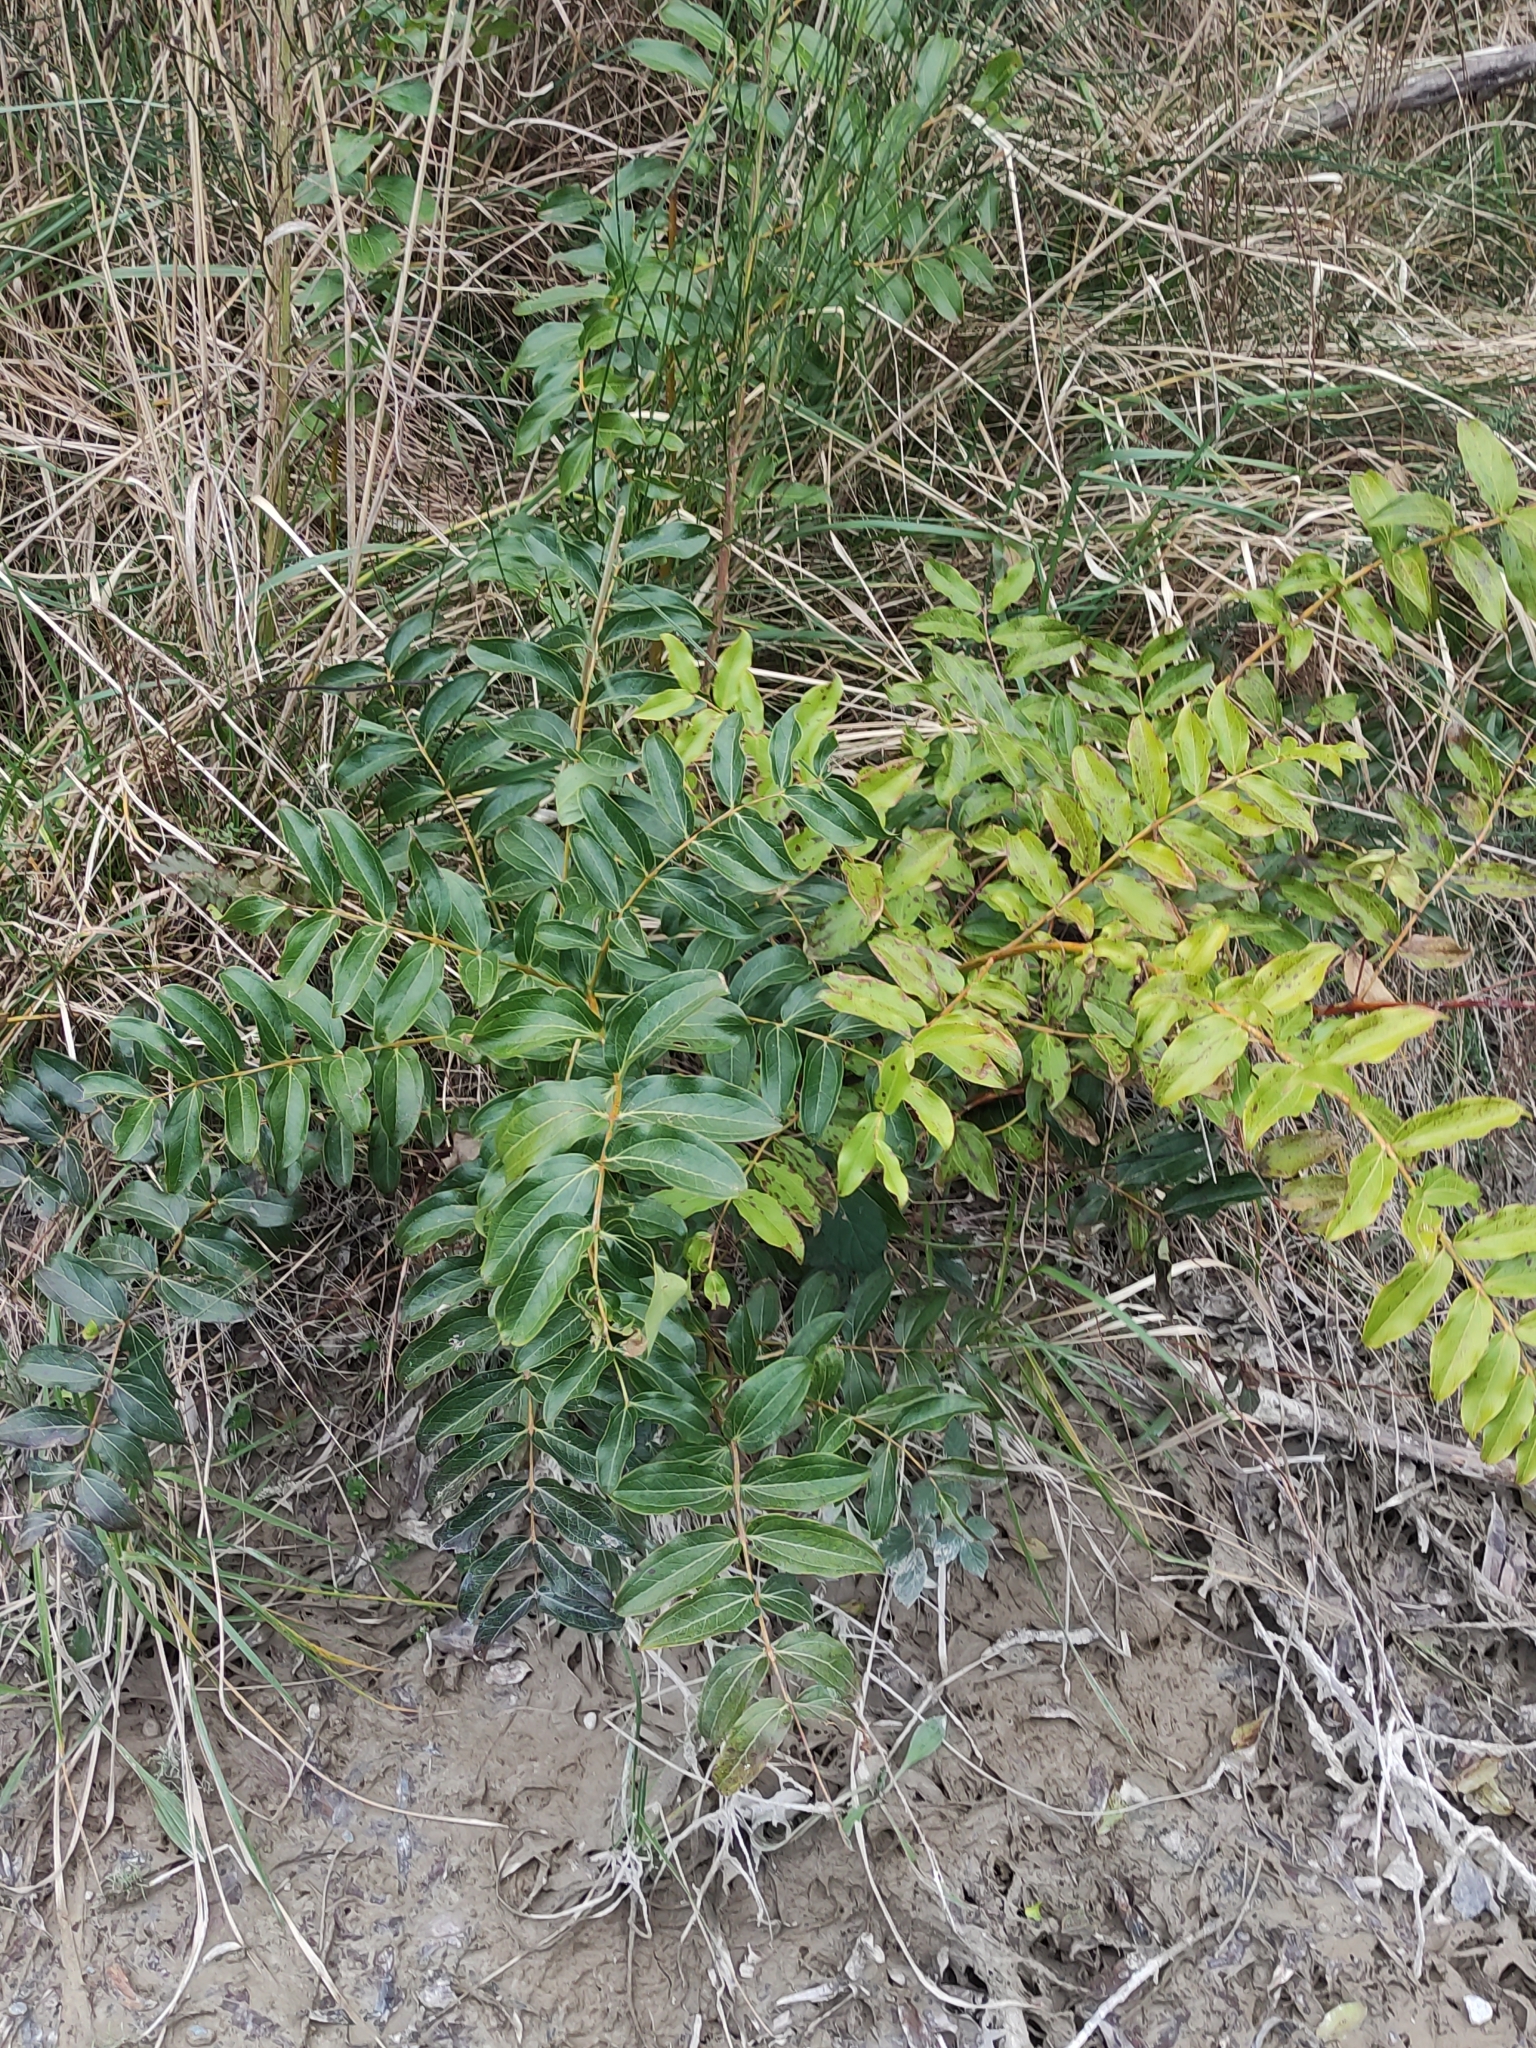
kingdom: Plantae
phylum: Tracheophyta
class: Magnoliopsida
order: Cucurbitales
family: Coriariaceae
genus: Coriaria
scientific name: Coriaria arborea
